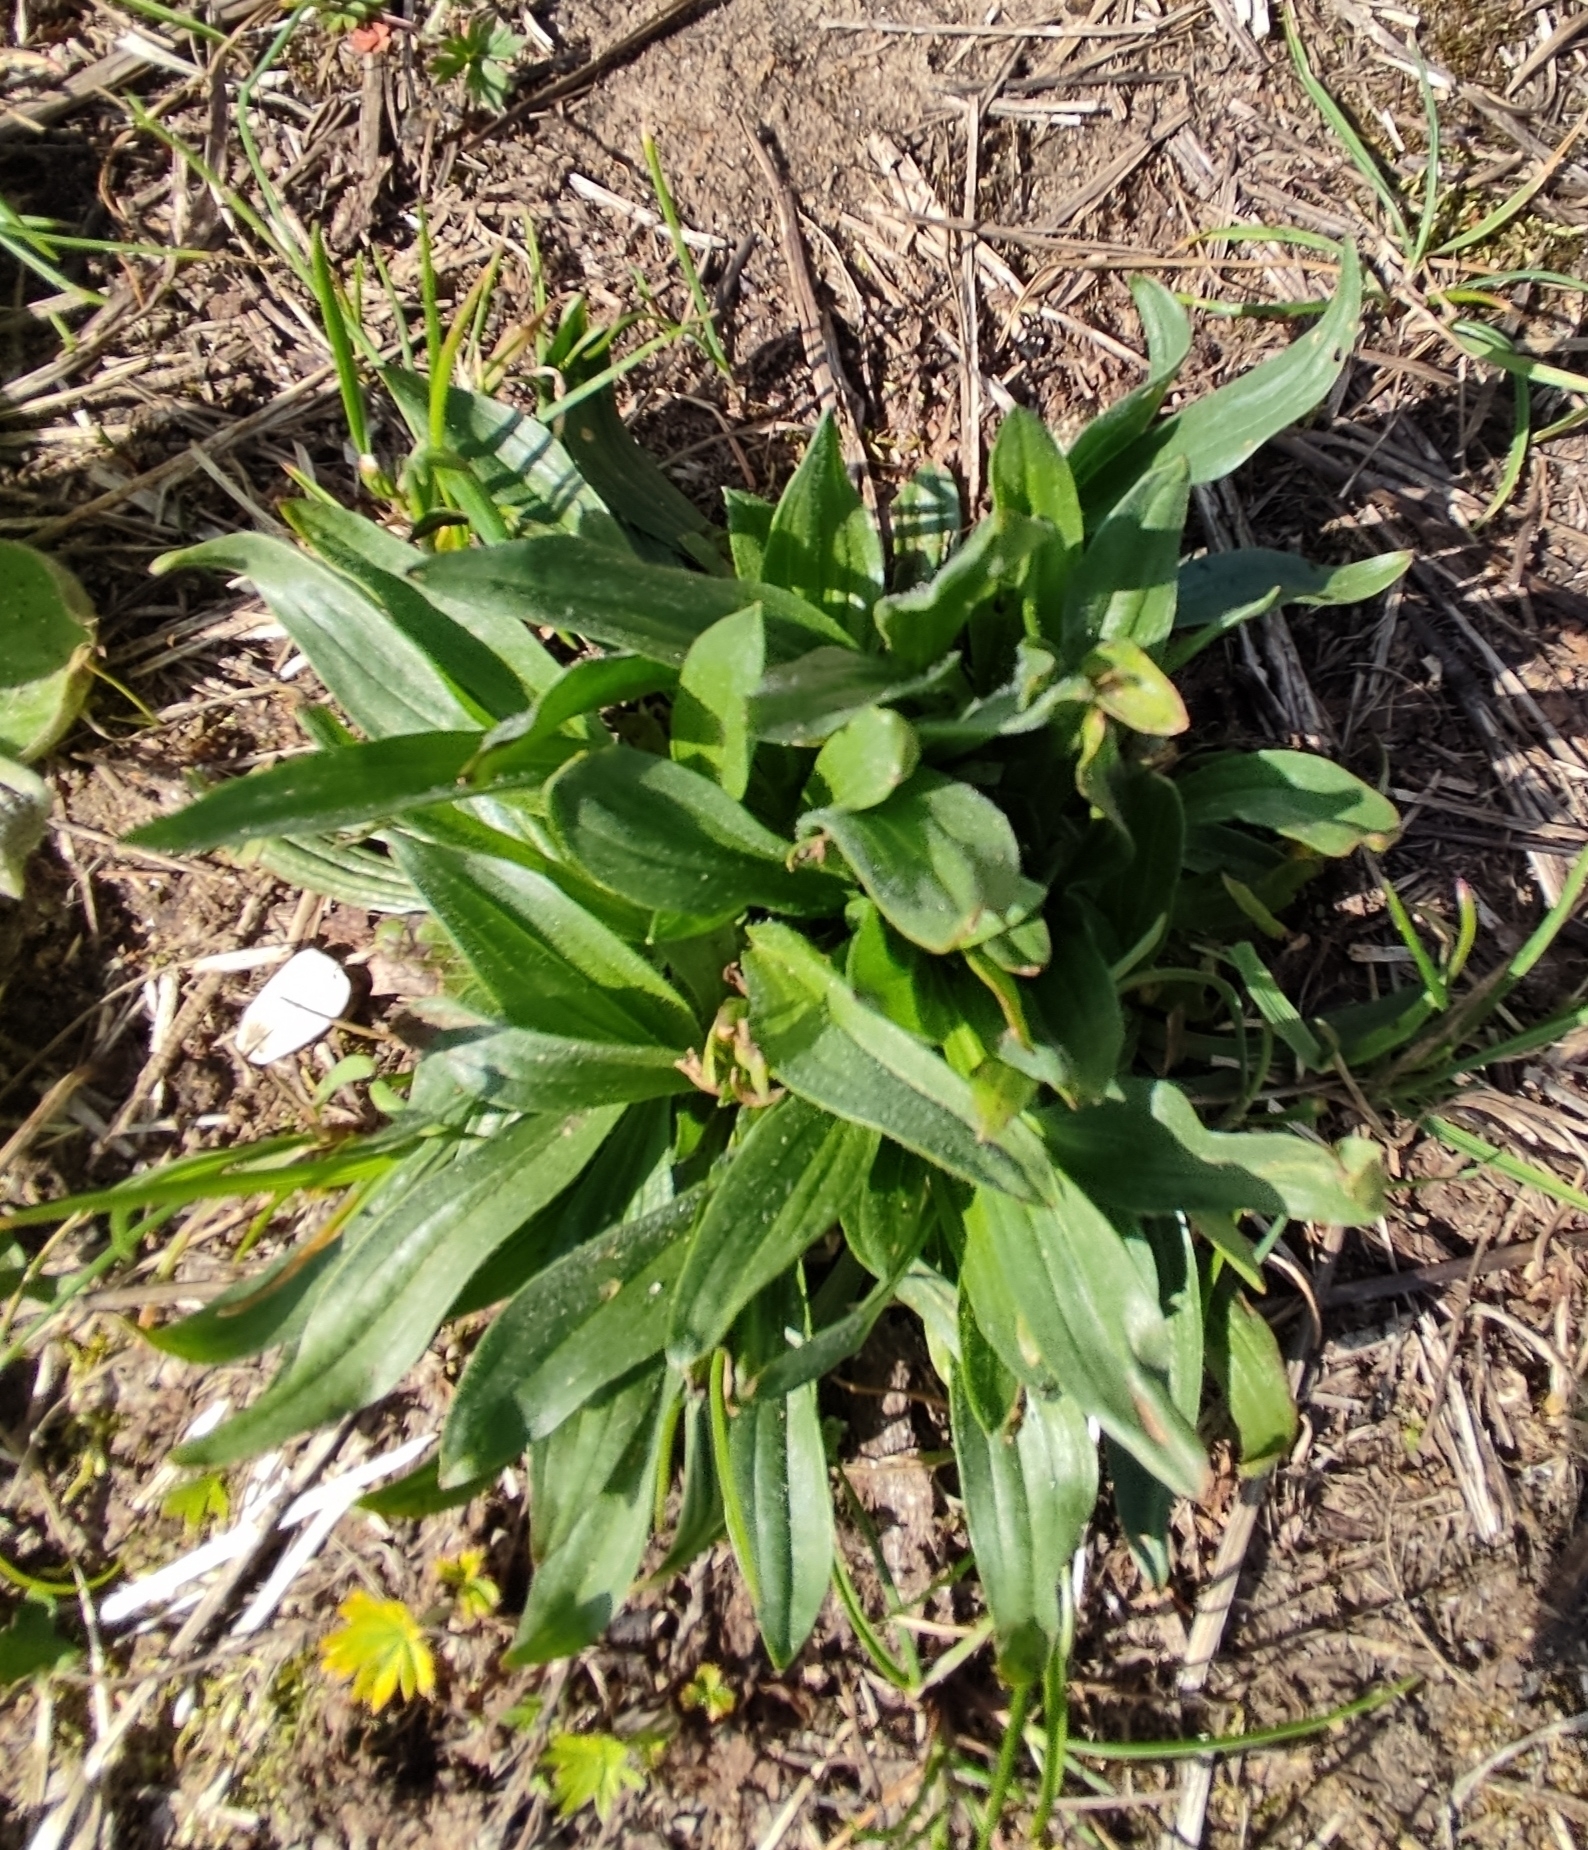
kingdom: Plantae
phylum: Tracheophyta
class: Magnoliopsida
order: Lamiales
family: Plantaginaceae
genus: Plantago
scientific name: Plantago lanceolata
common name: Ribwort plantain
